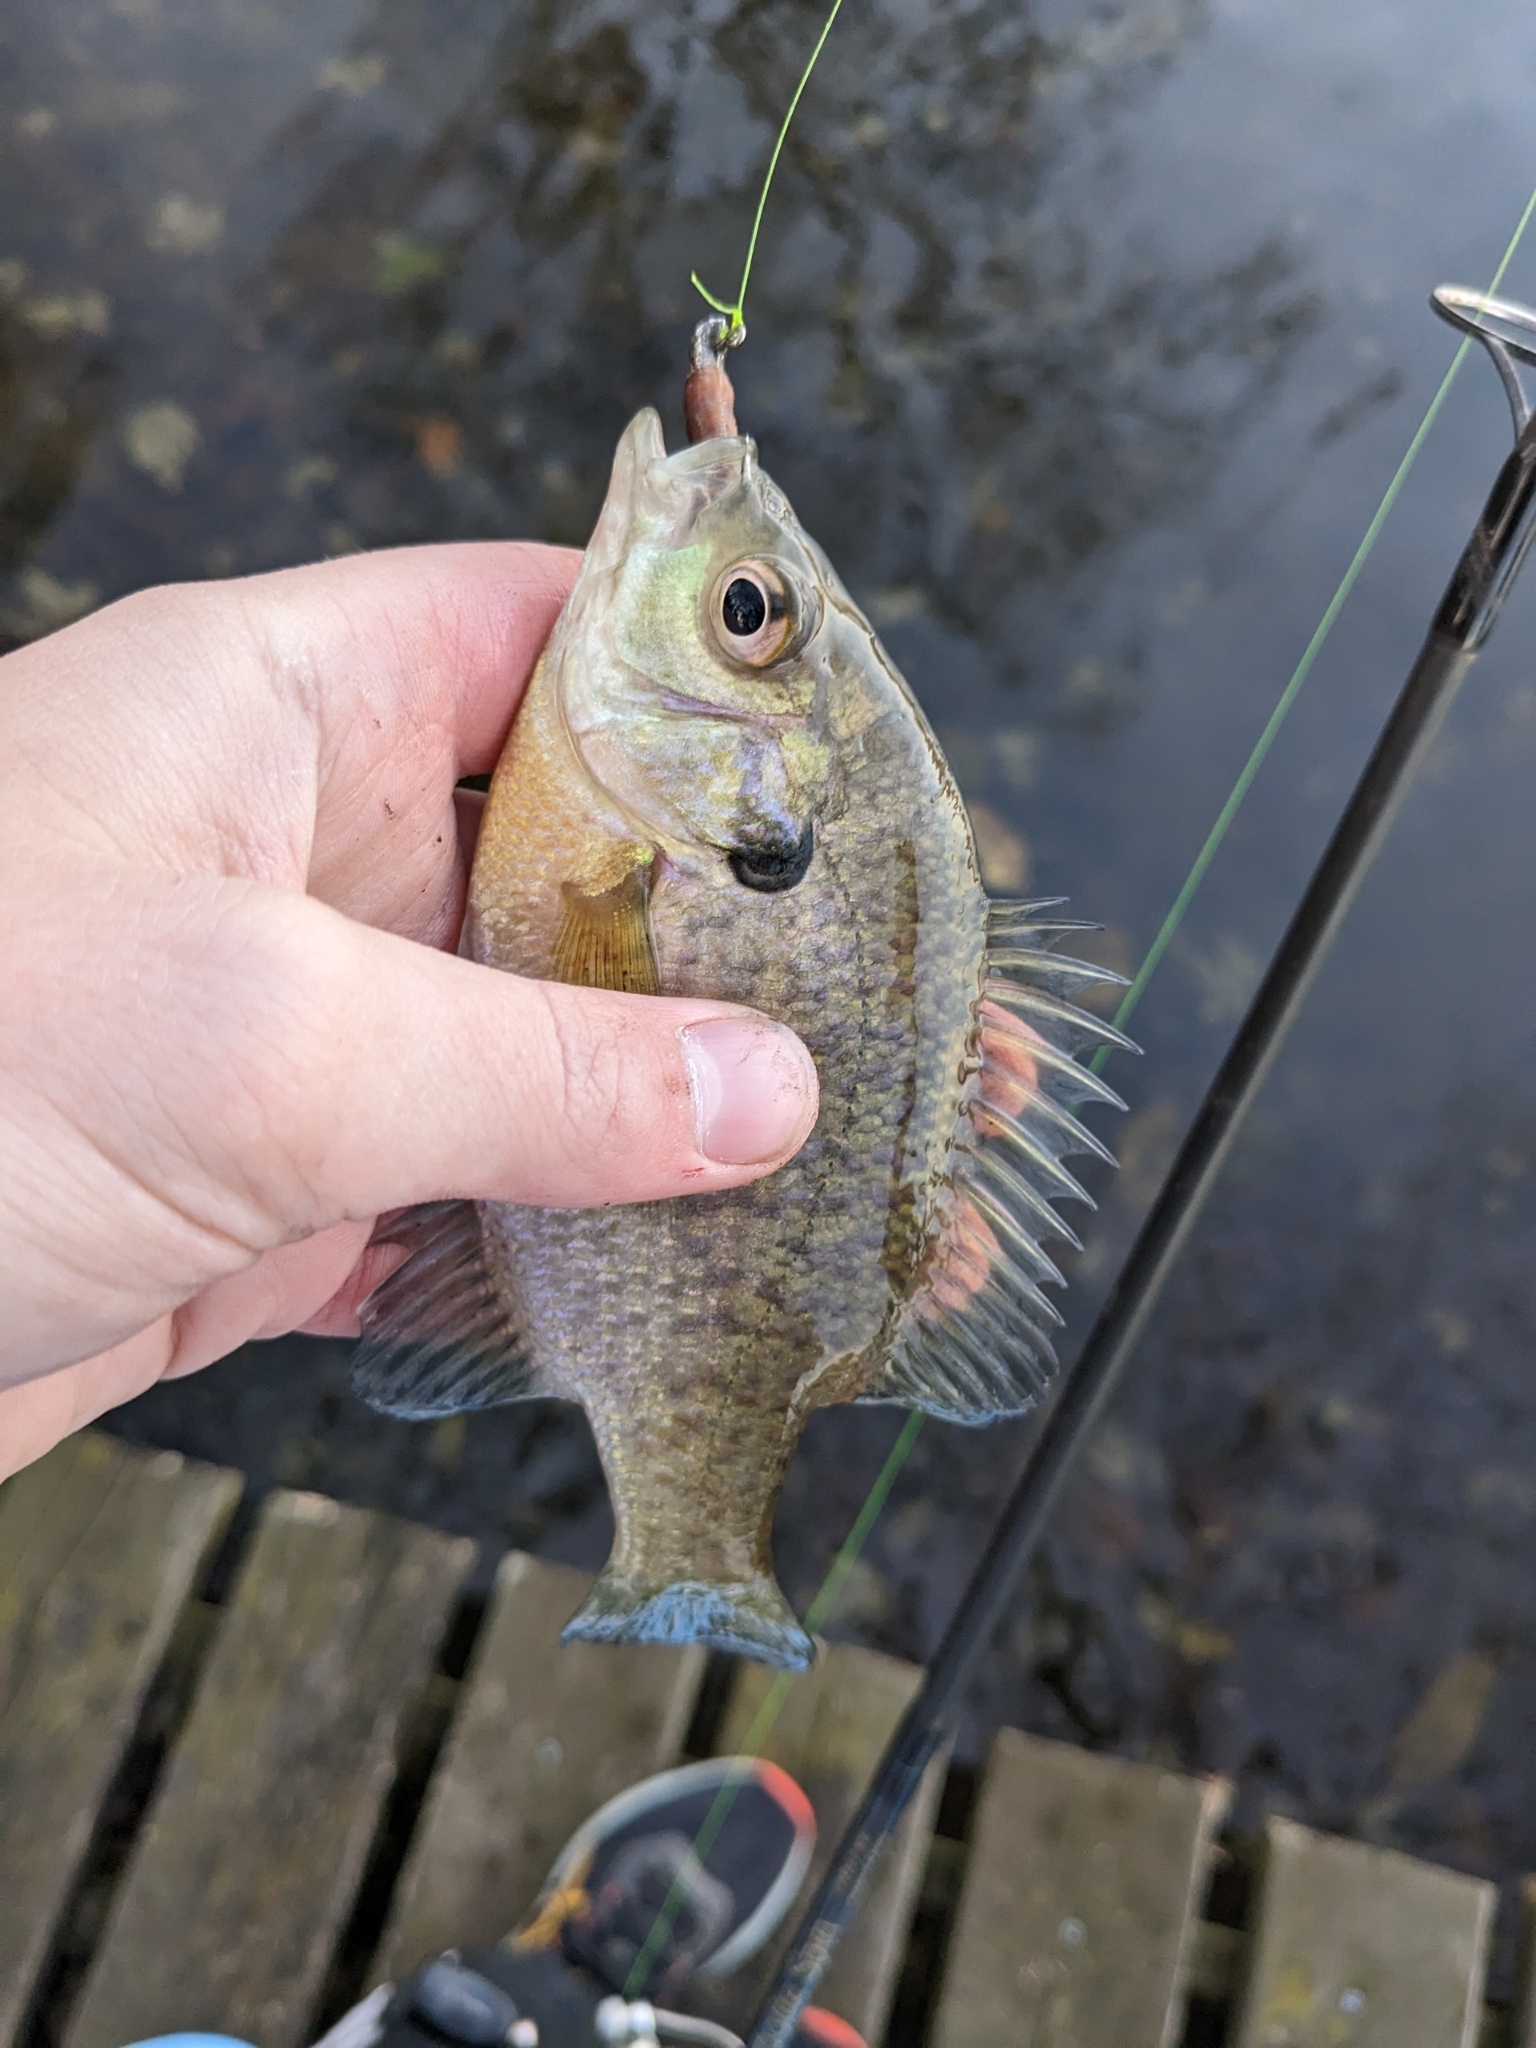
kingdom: Animalia
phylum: Chordata
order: Perciformes
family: Centrarchidae
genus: Lepomis
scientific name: Lepomis macrochirus
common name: Bluegill
